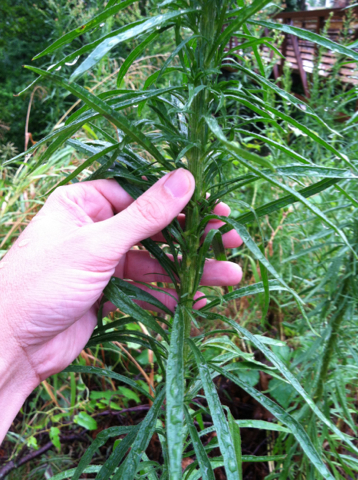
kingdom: Plantae
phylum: Tracheophyta
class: Magnoliopsida
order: Asterales
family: Asteraceae
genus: Erigeron
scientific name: Erigeron canadensis
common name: Canadian fleabane
